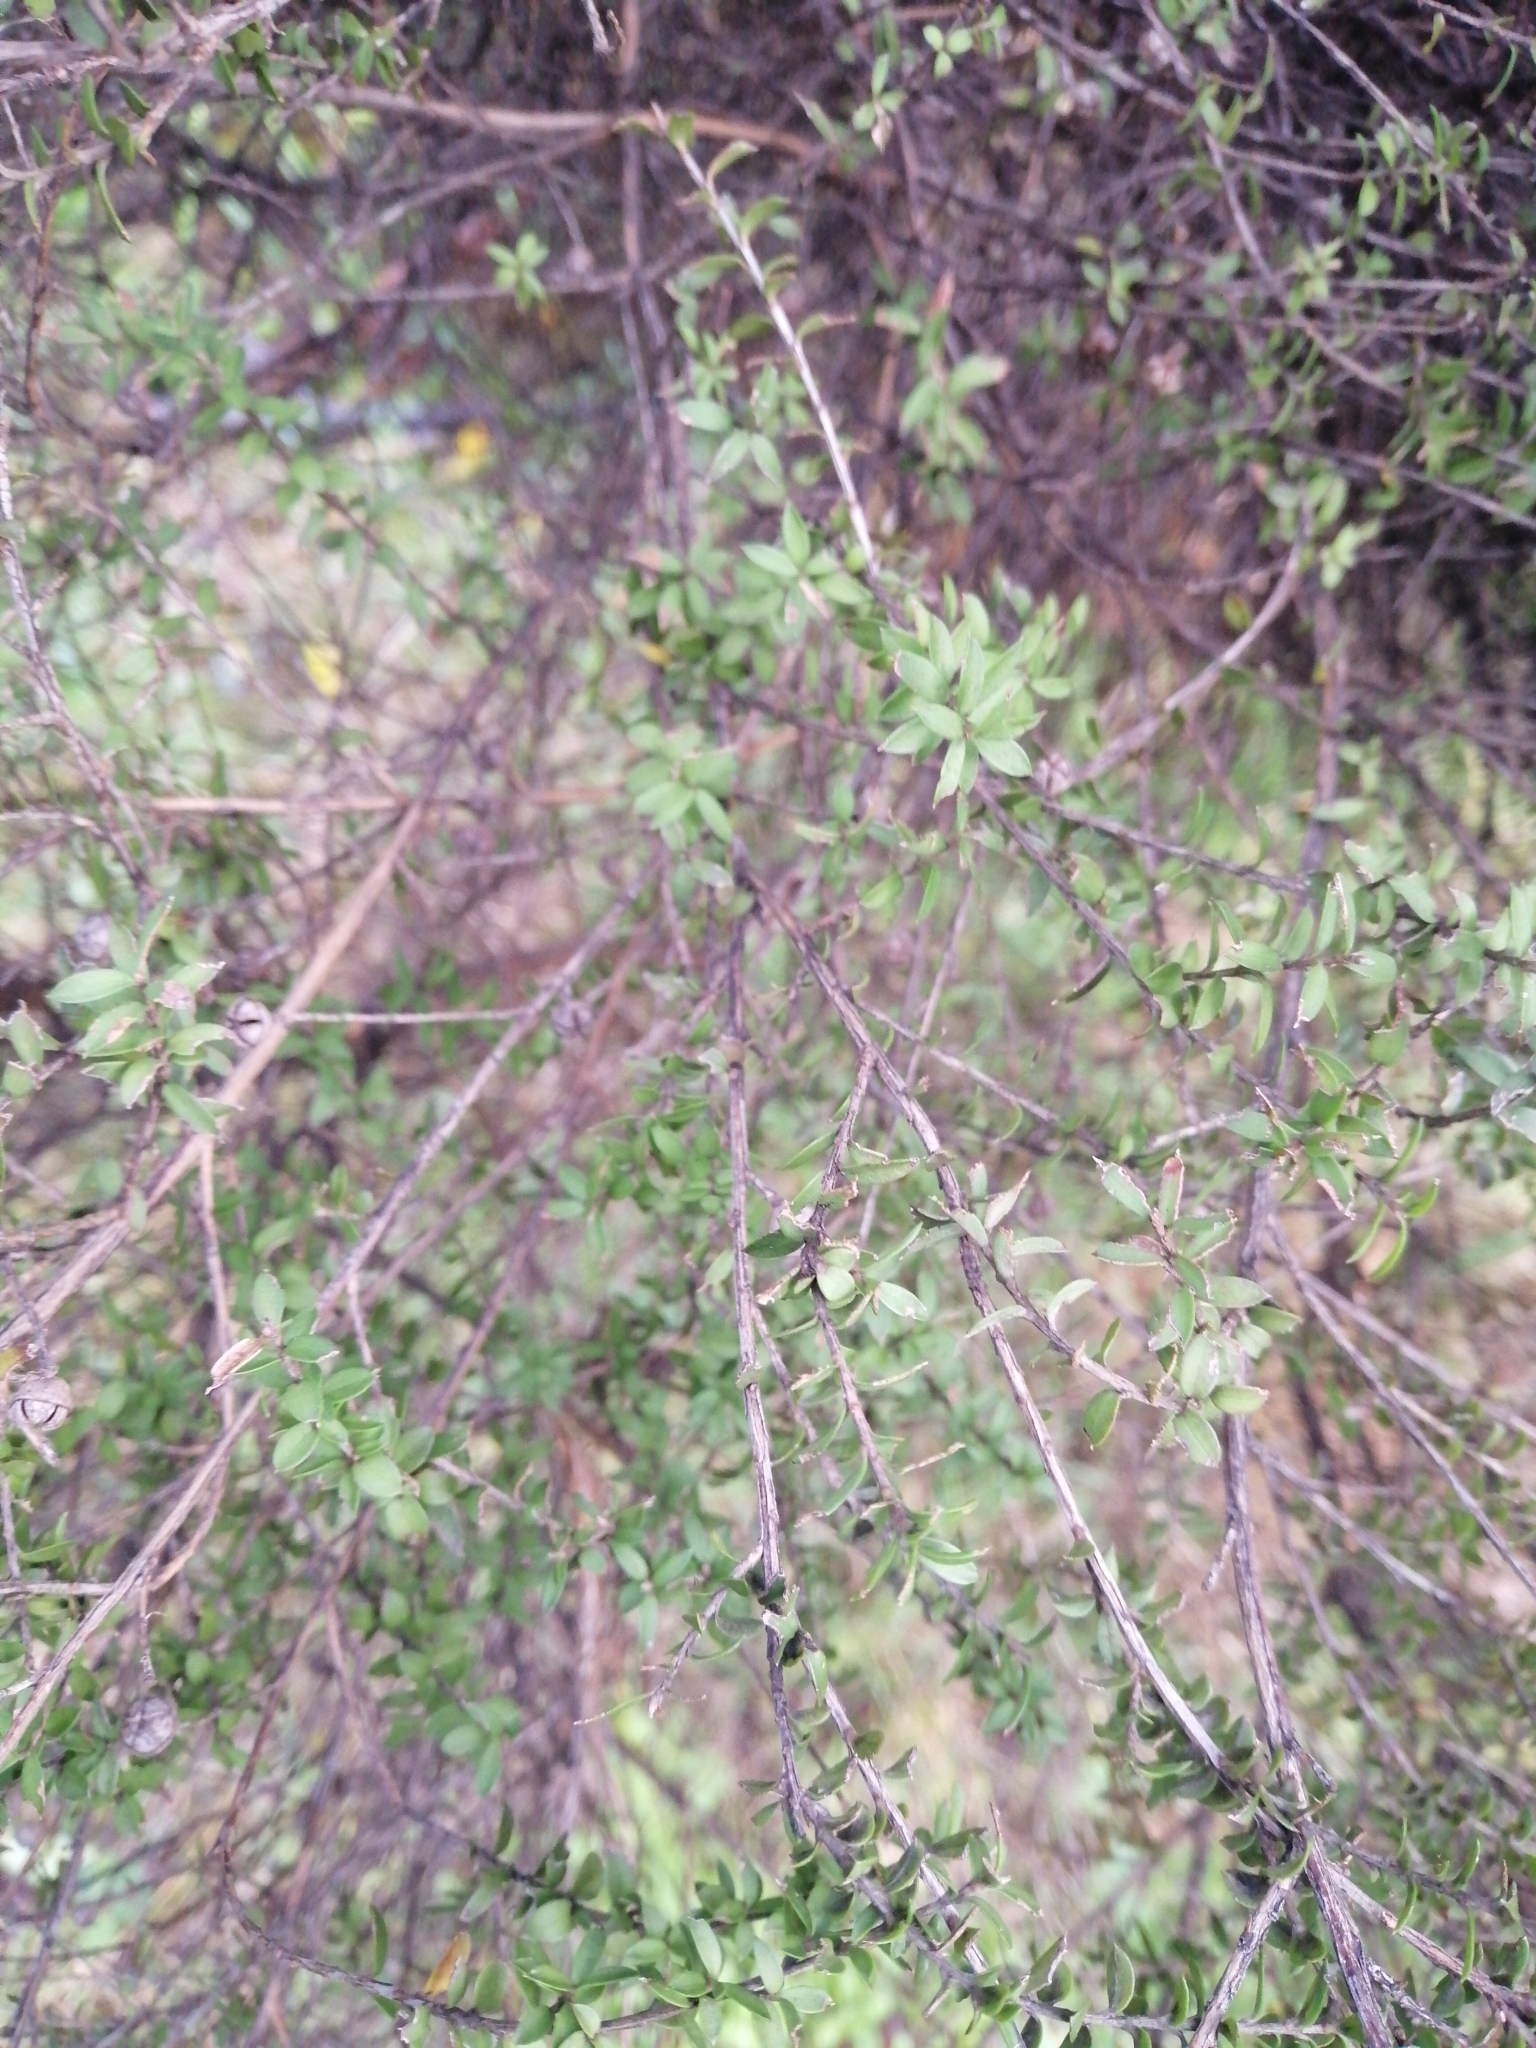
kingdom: Plantae
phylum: Tracheophyta
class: Magnoliopsida
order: Myrtales
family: Myrtaceae
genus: Leptospermum
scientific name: Leptospermum scoparium
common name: Broom tea-tree
